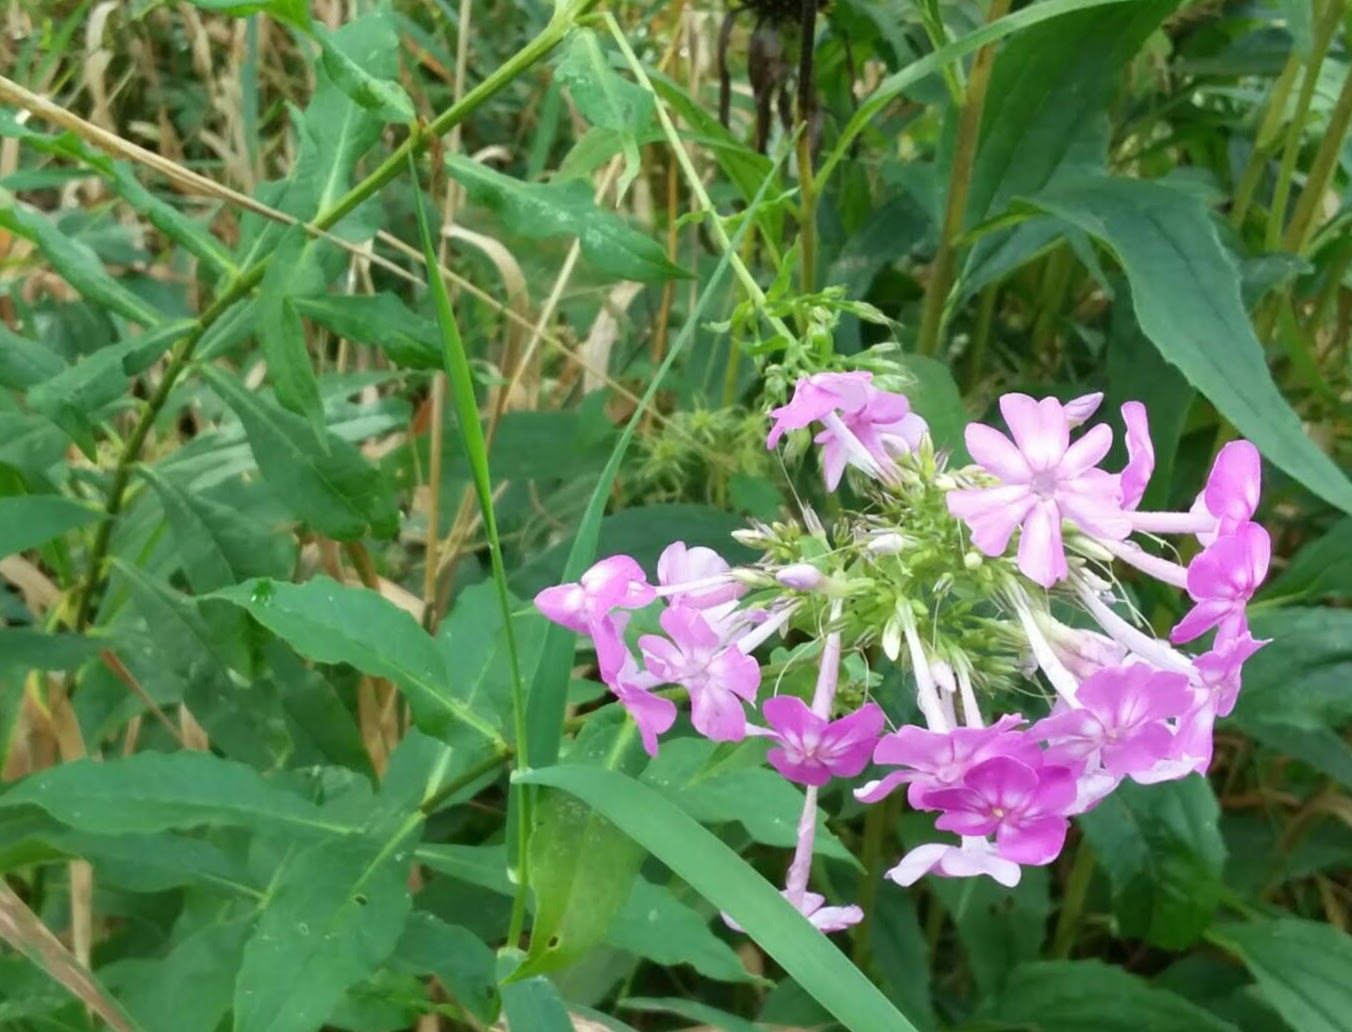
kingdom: Plantae
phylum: Tracheophyta
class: Magnoliopsida
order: Ericales
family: Polemoniaceae
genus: Phlox
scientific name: Phlox paniculata
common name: Fall phlox
